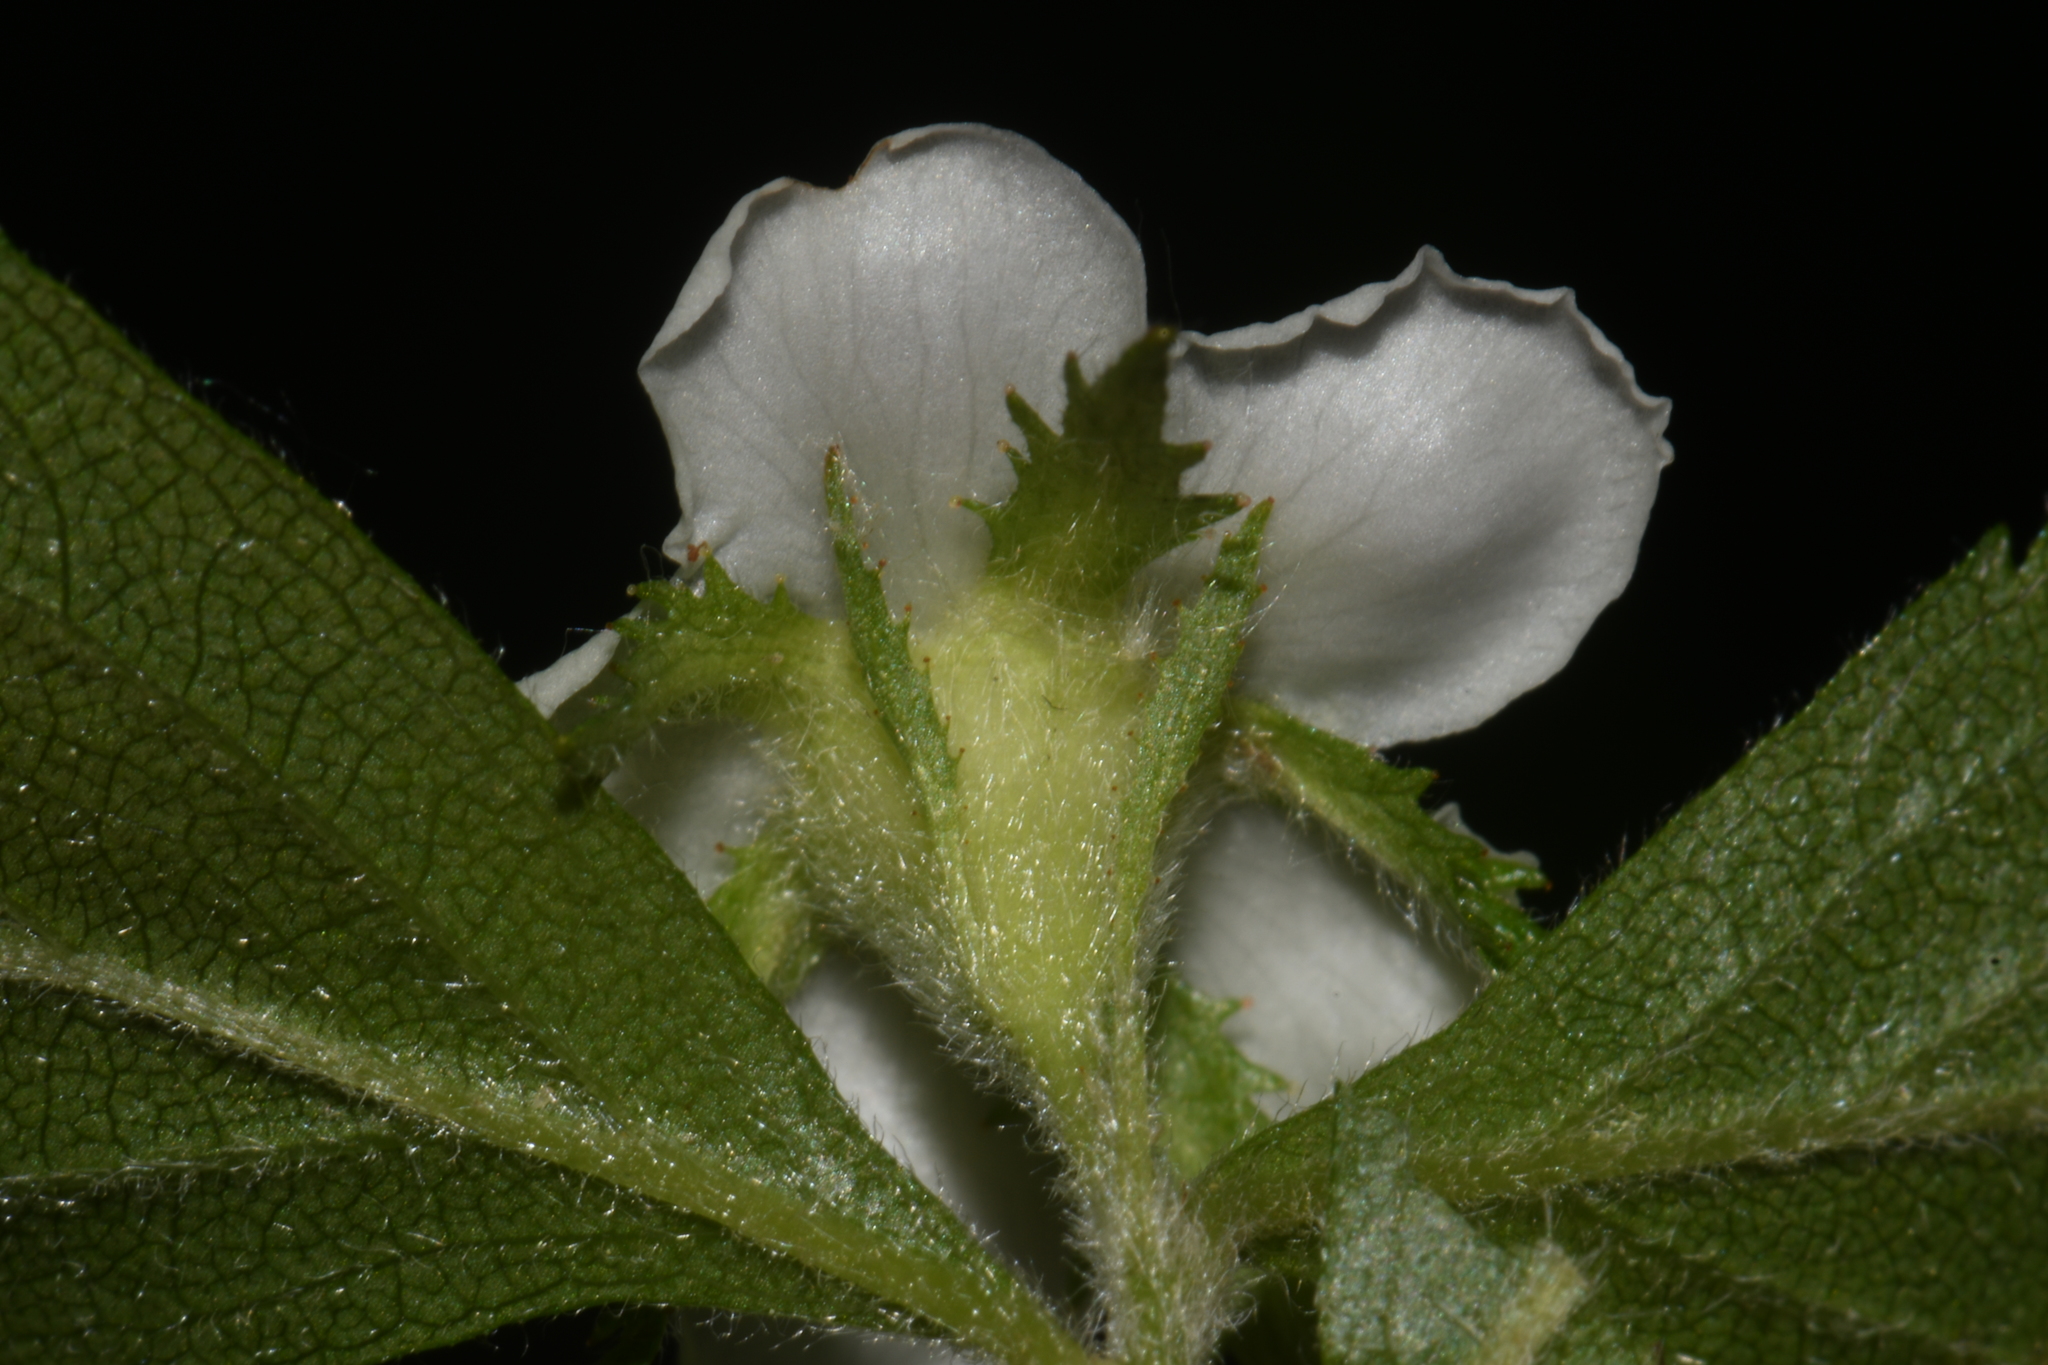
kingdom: Plantae
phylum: Tracheophyta
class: Magnoliopsida
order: Rosales
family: Rosaceae
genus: Crataegus
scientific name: Crataegus uniflora
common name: One-flower hawthorn
